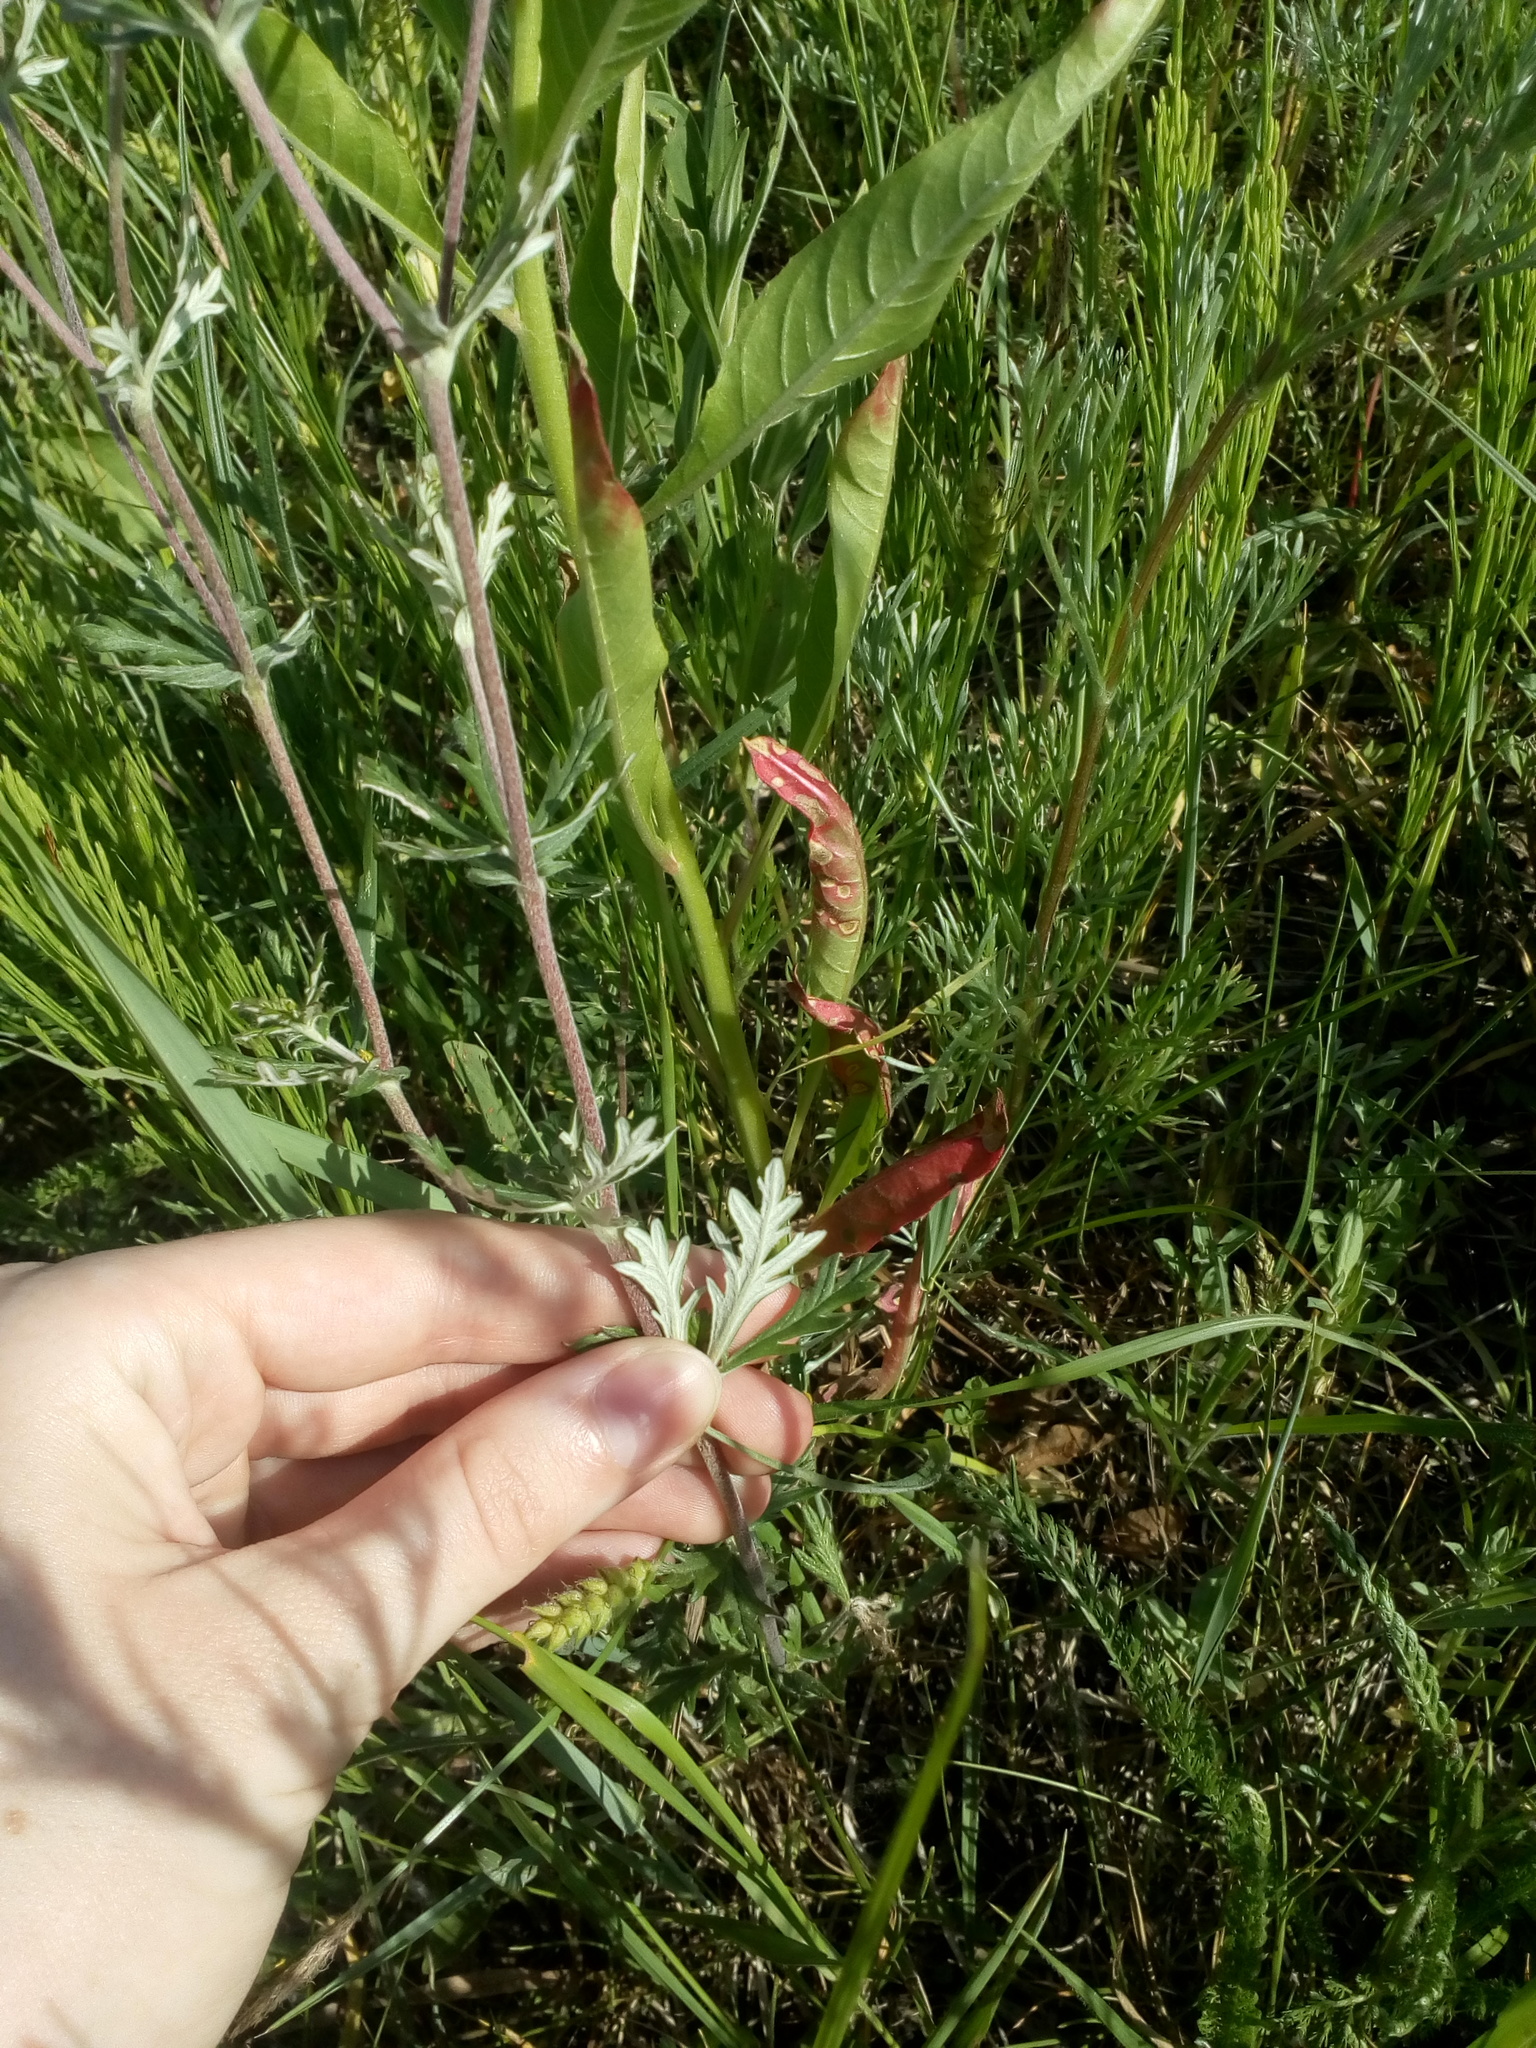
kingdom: Plantae
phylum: Tracheophyta
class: Magnoliopsida
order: Rosales
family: Rosaceae
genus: Potentilla
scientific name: Potentilla argentea
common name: Hoary cinquefoil
